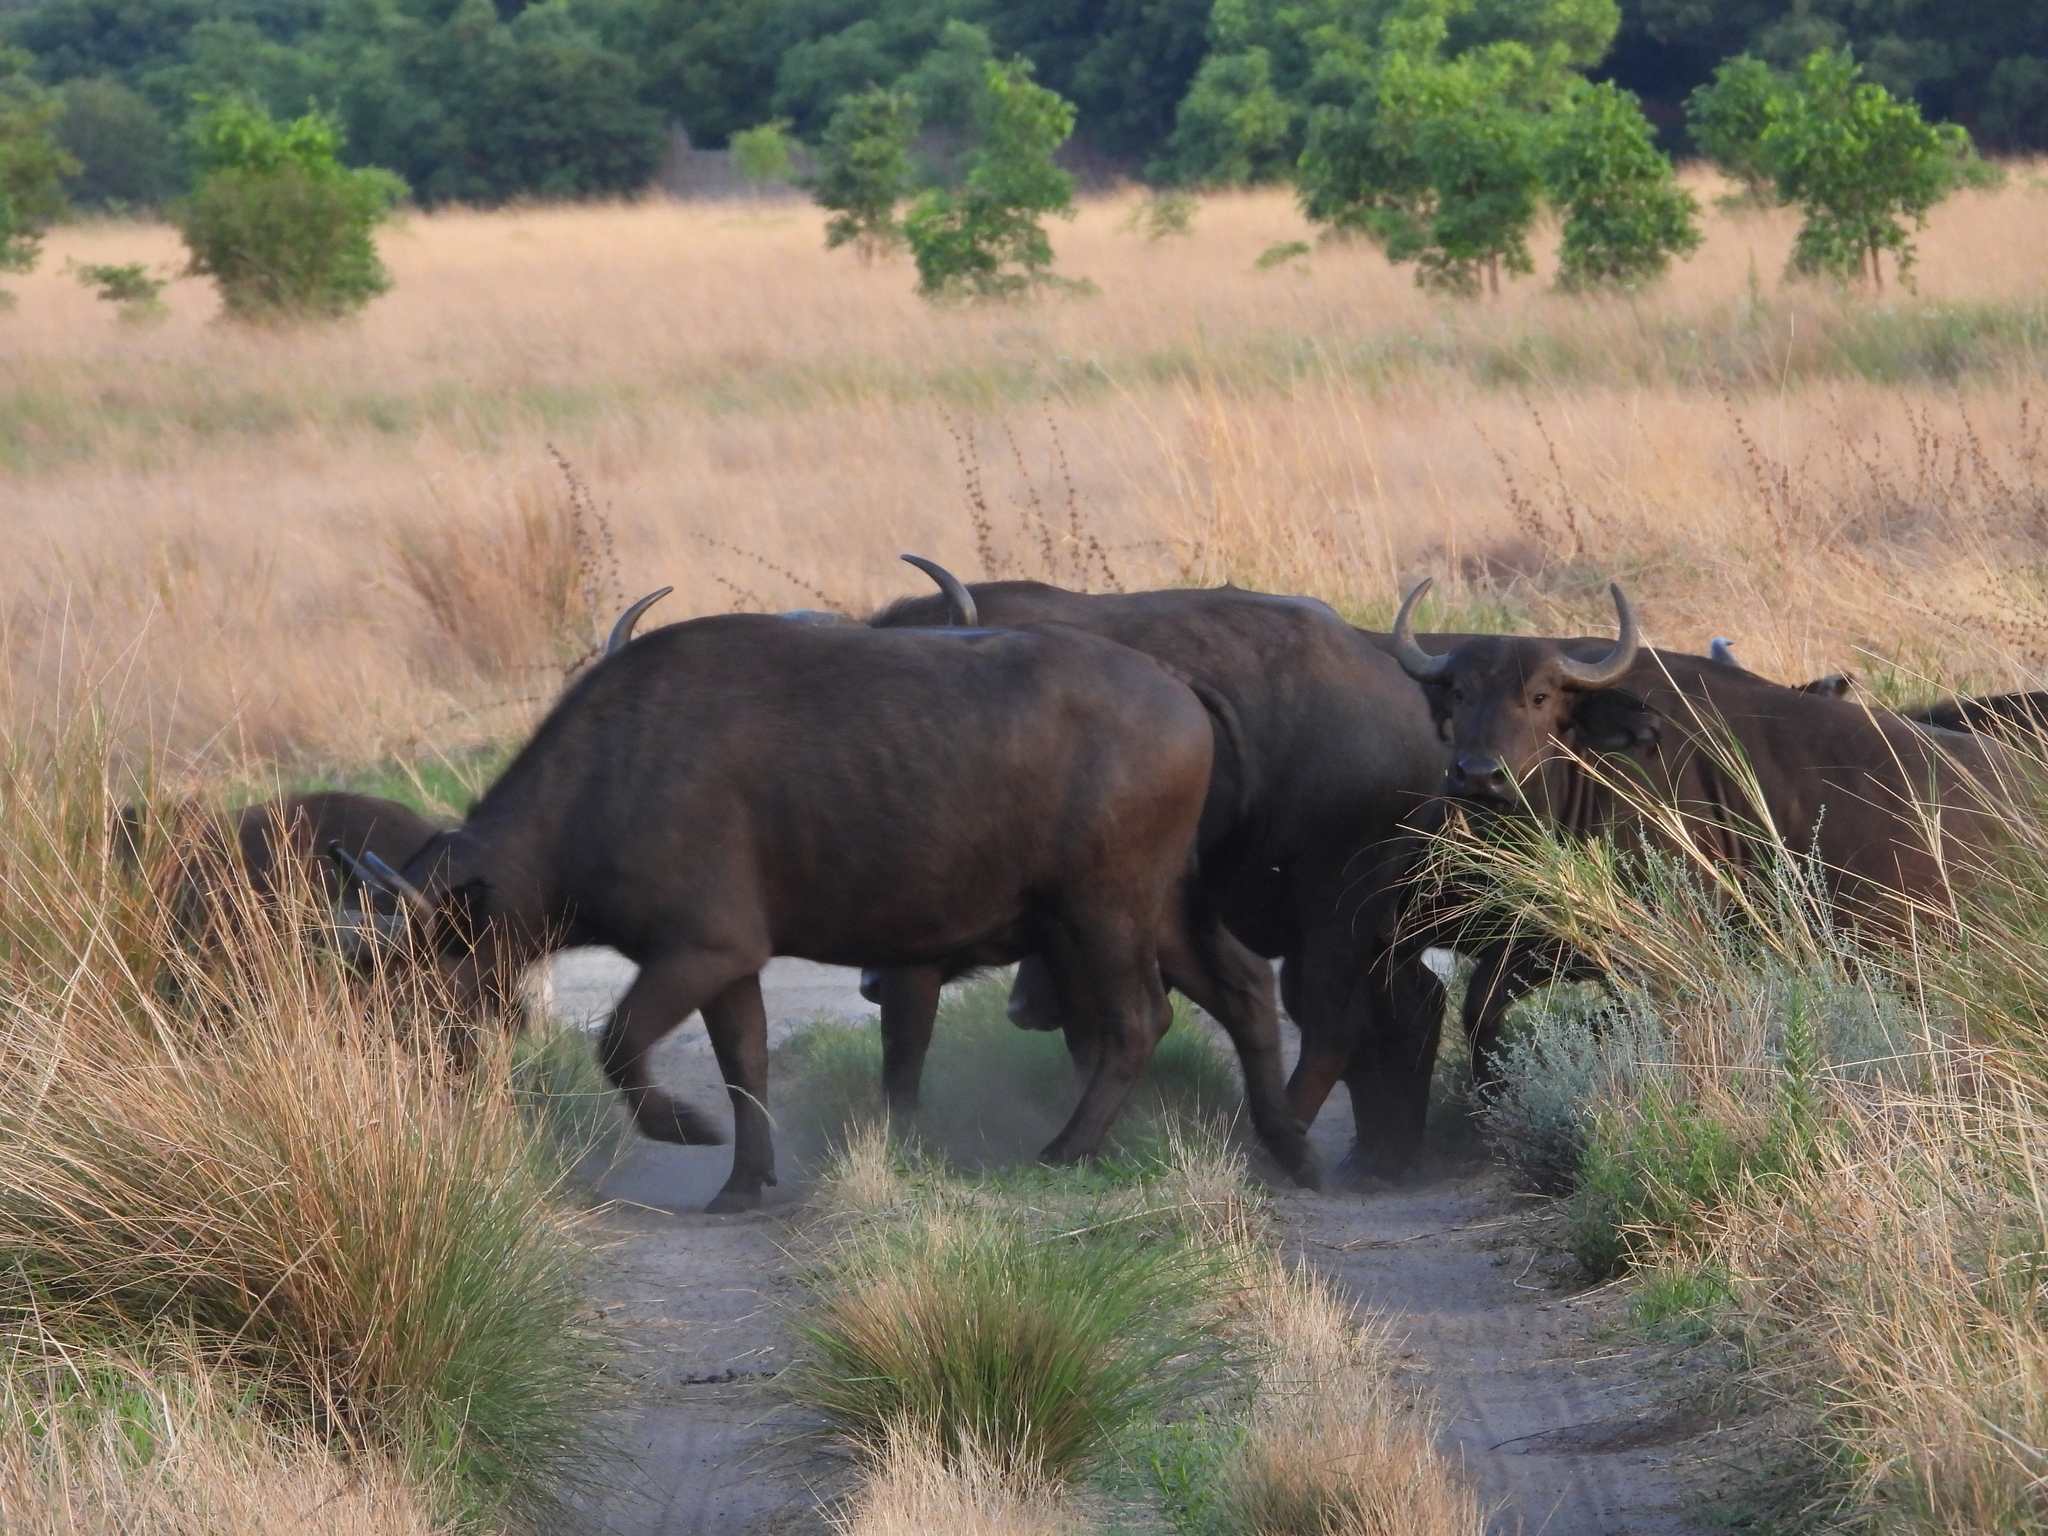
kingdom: Animalia
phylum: Chordata
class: Mammalia
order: Artiodactyla
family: Bovidae
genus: Syncerus
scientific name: Syncerus caffer
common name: African buffalo
